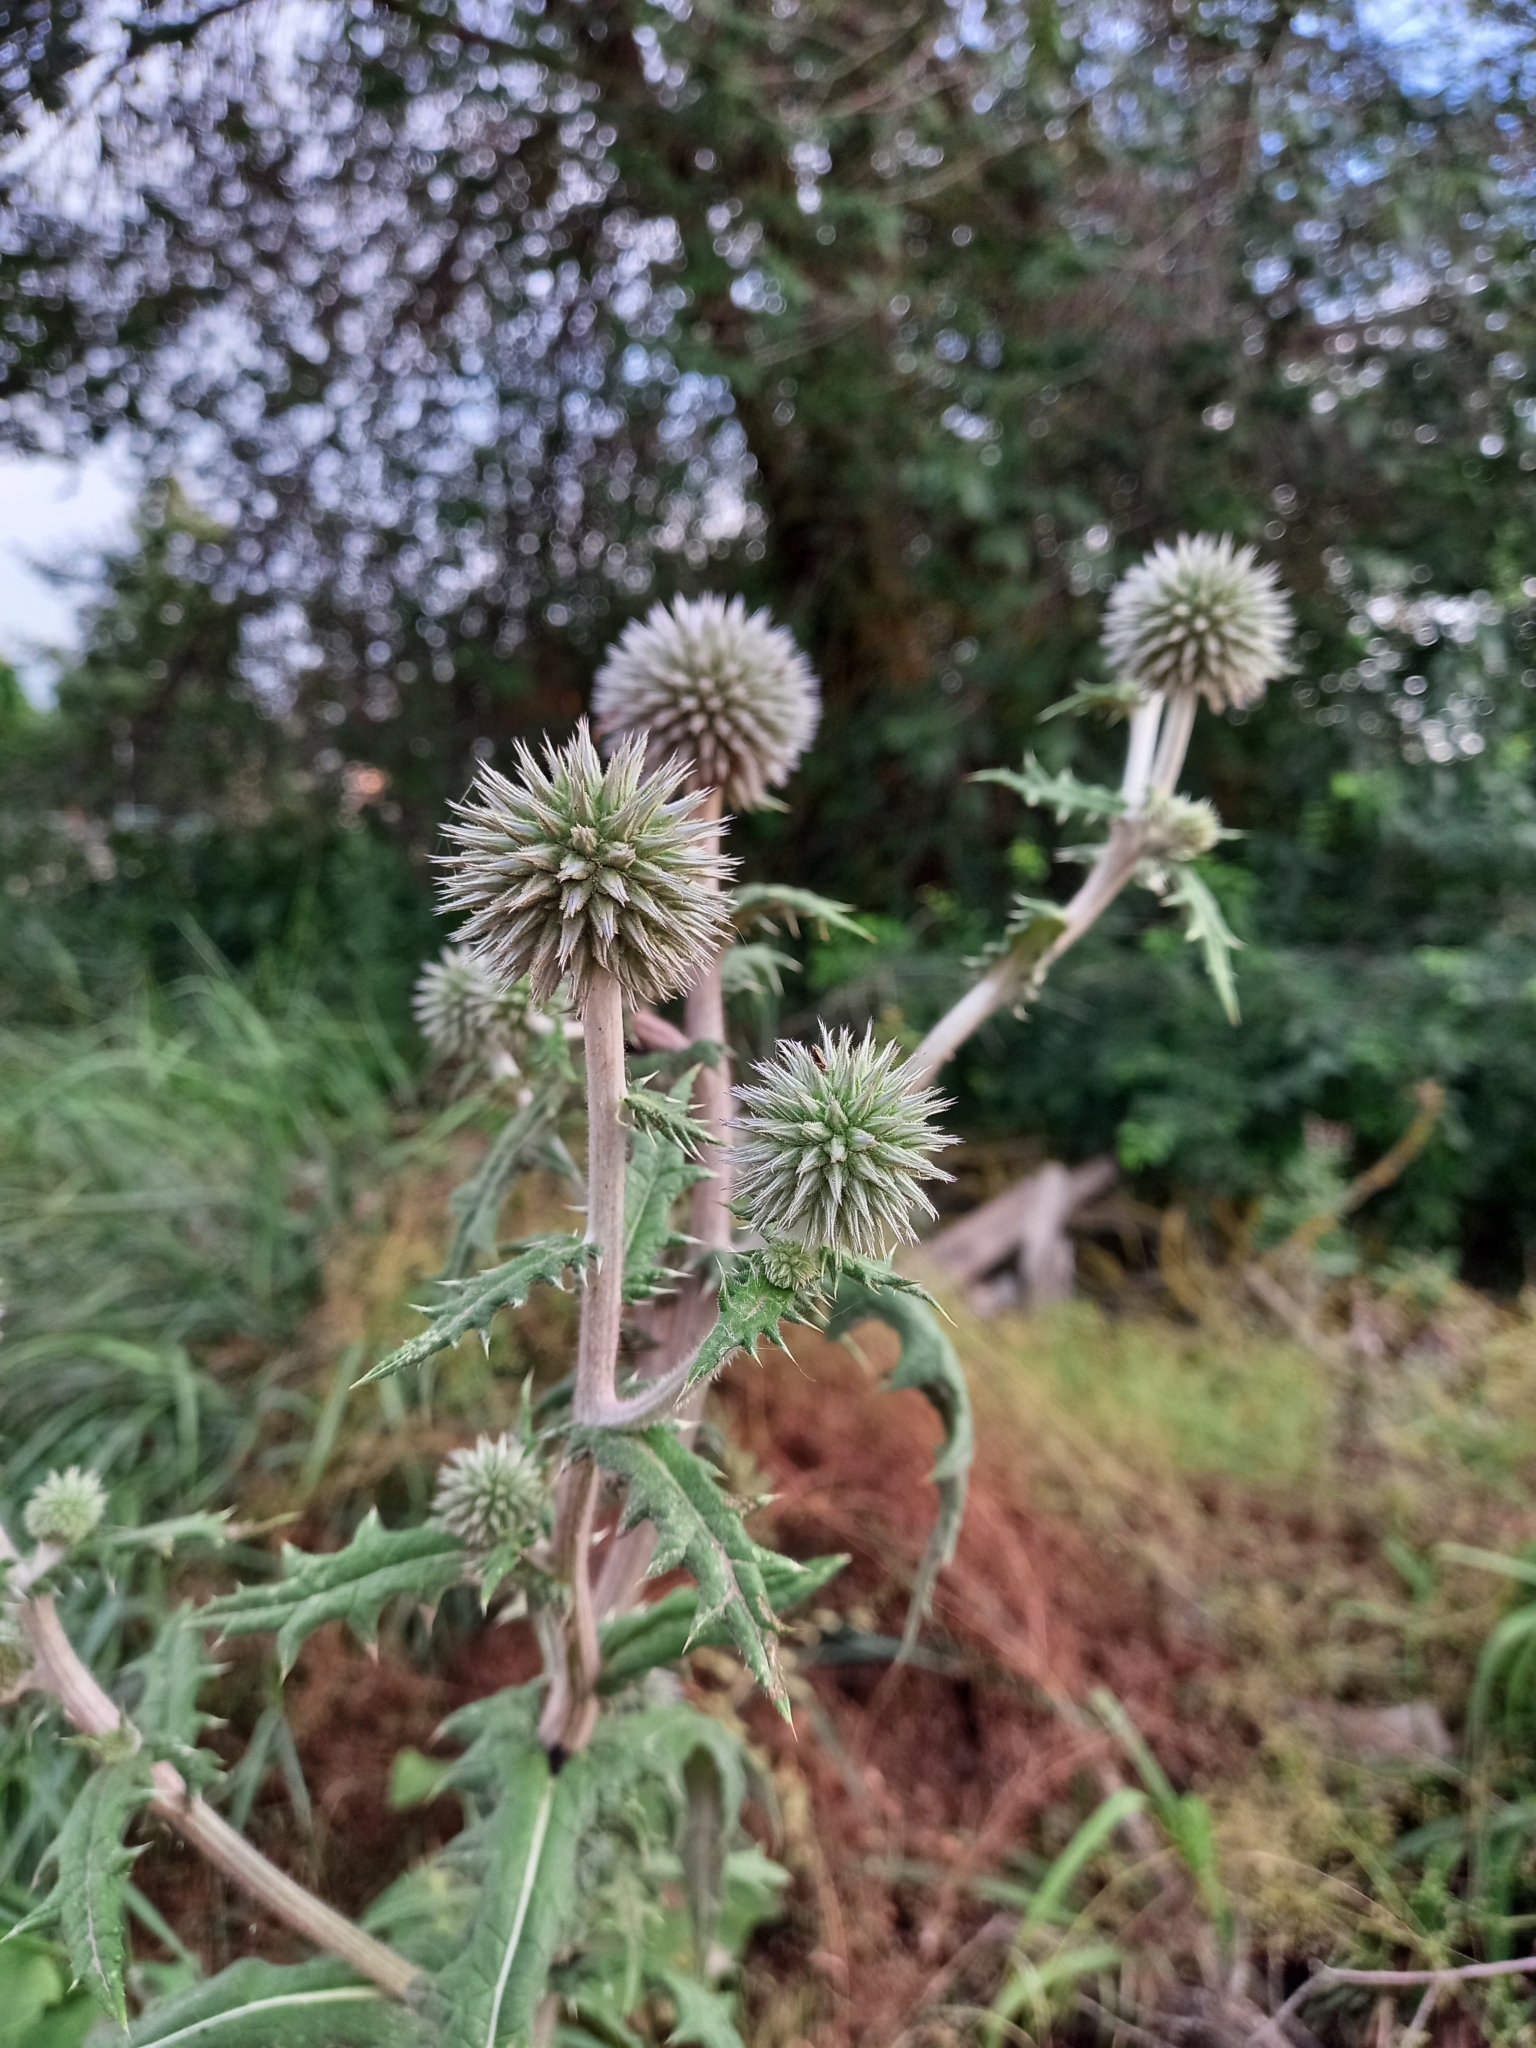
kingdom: Plantae
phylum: Tracheophyta
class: Magnoliopsida
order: Asterales
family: Asteraceae
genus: Echinops
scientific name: Echinops sphaerocephalus
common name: Glandular globe-thistle
